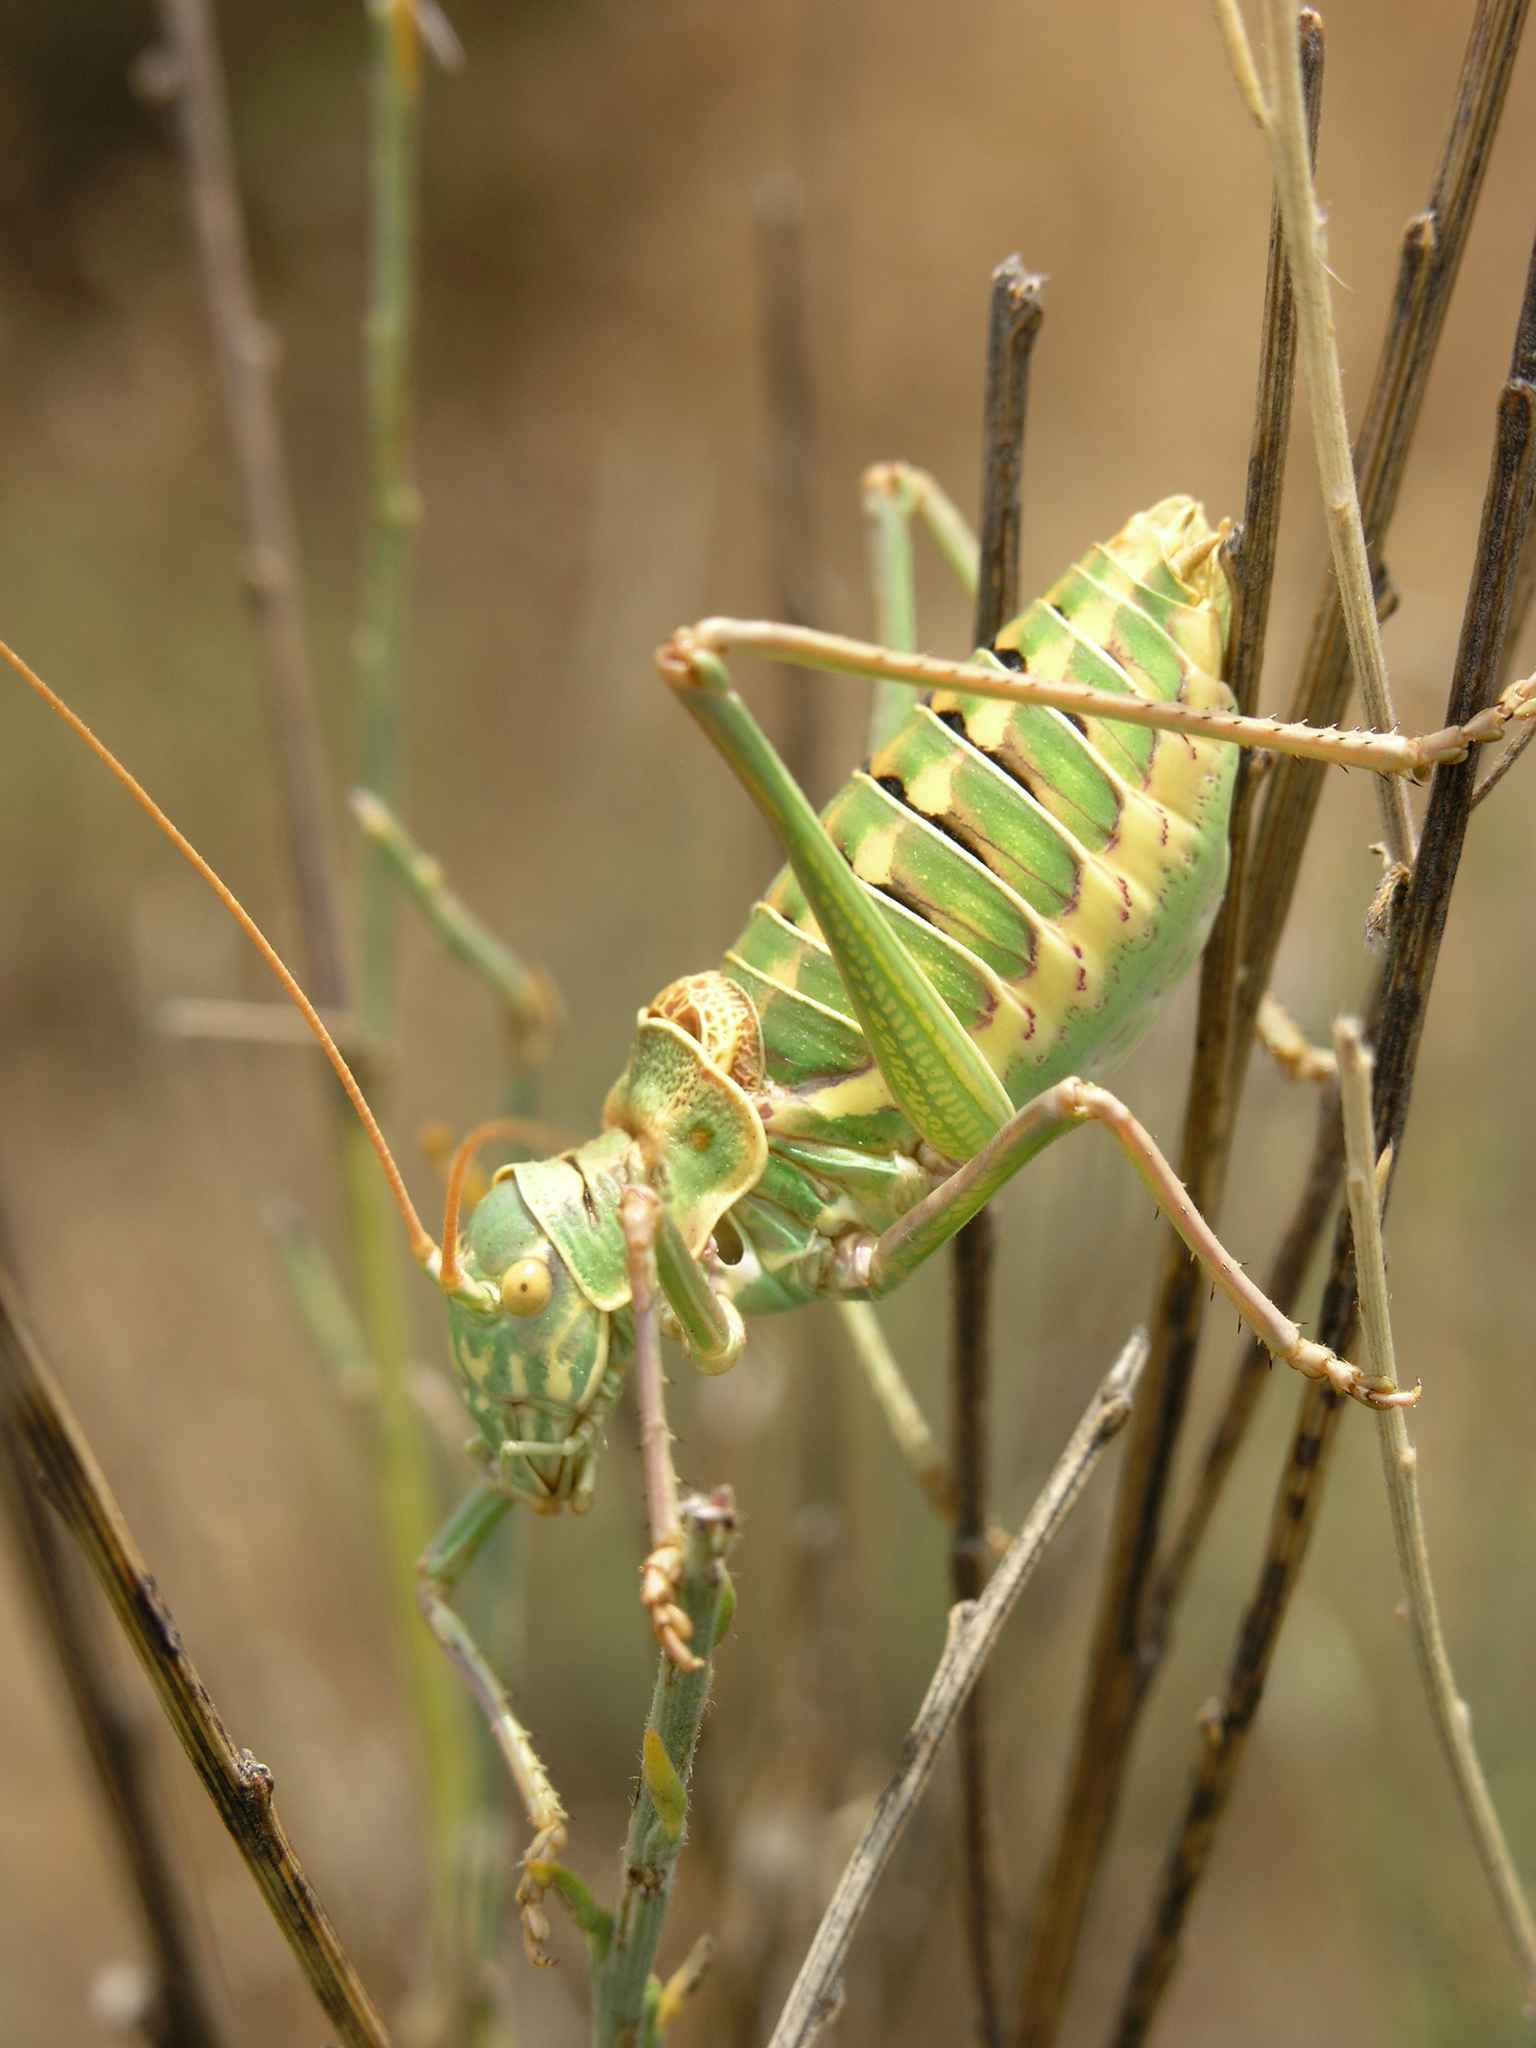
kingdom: Animalia
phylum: Arthropoda
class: Insecta
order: Orthoptera
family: Tettigoniidae
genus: Ephippigerida
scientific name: Ephippigerida saussuriana
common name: Saussure's saddle bush-cricket
